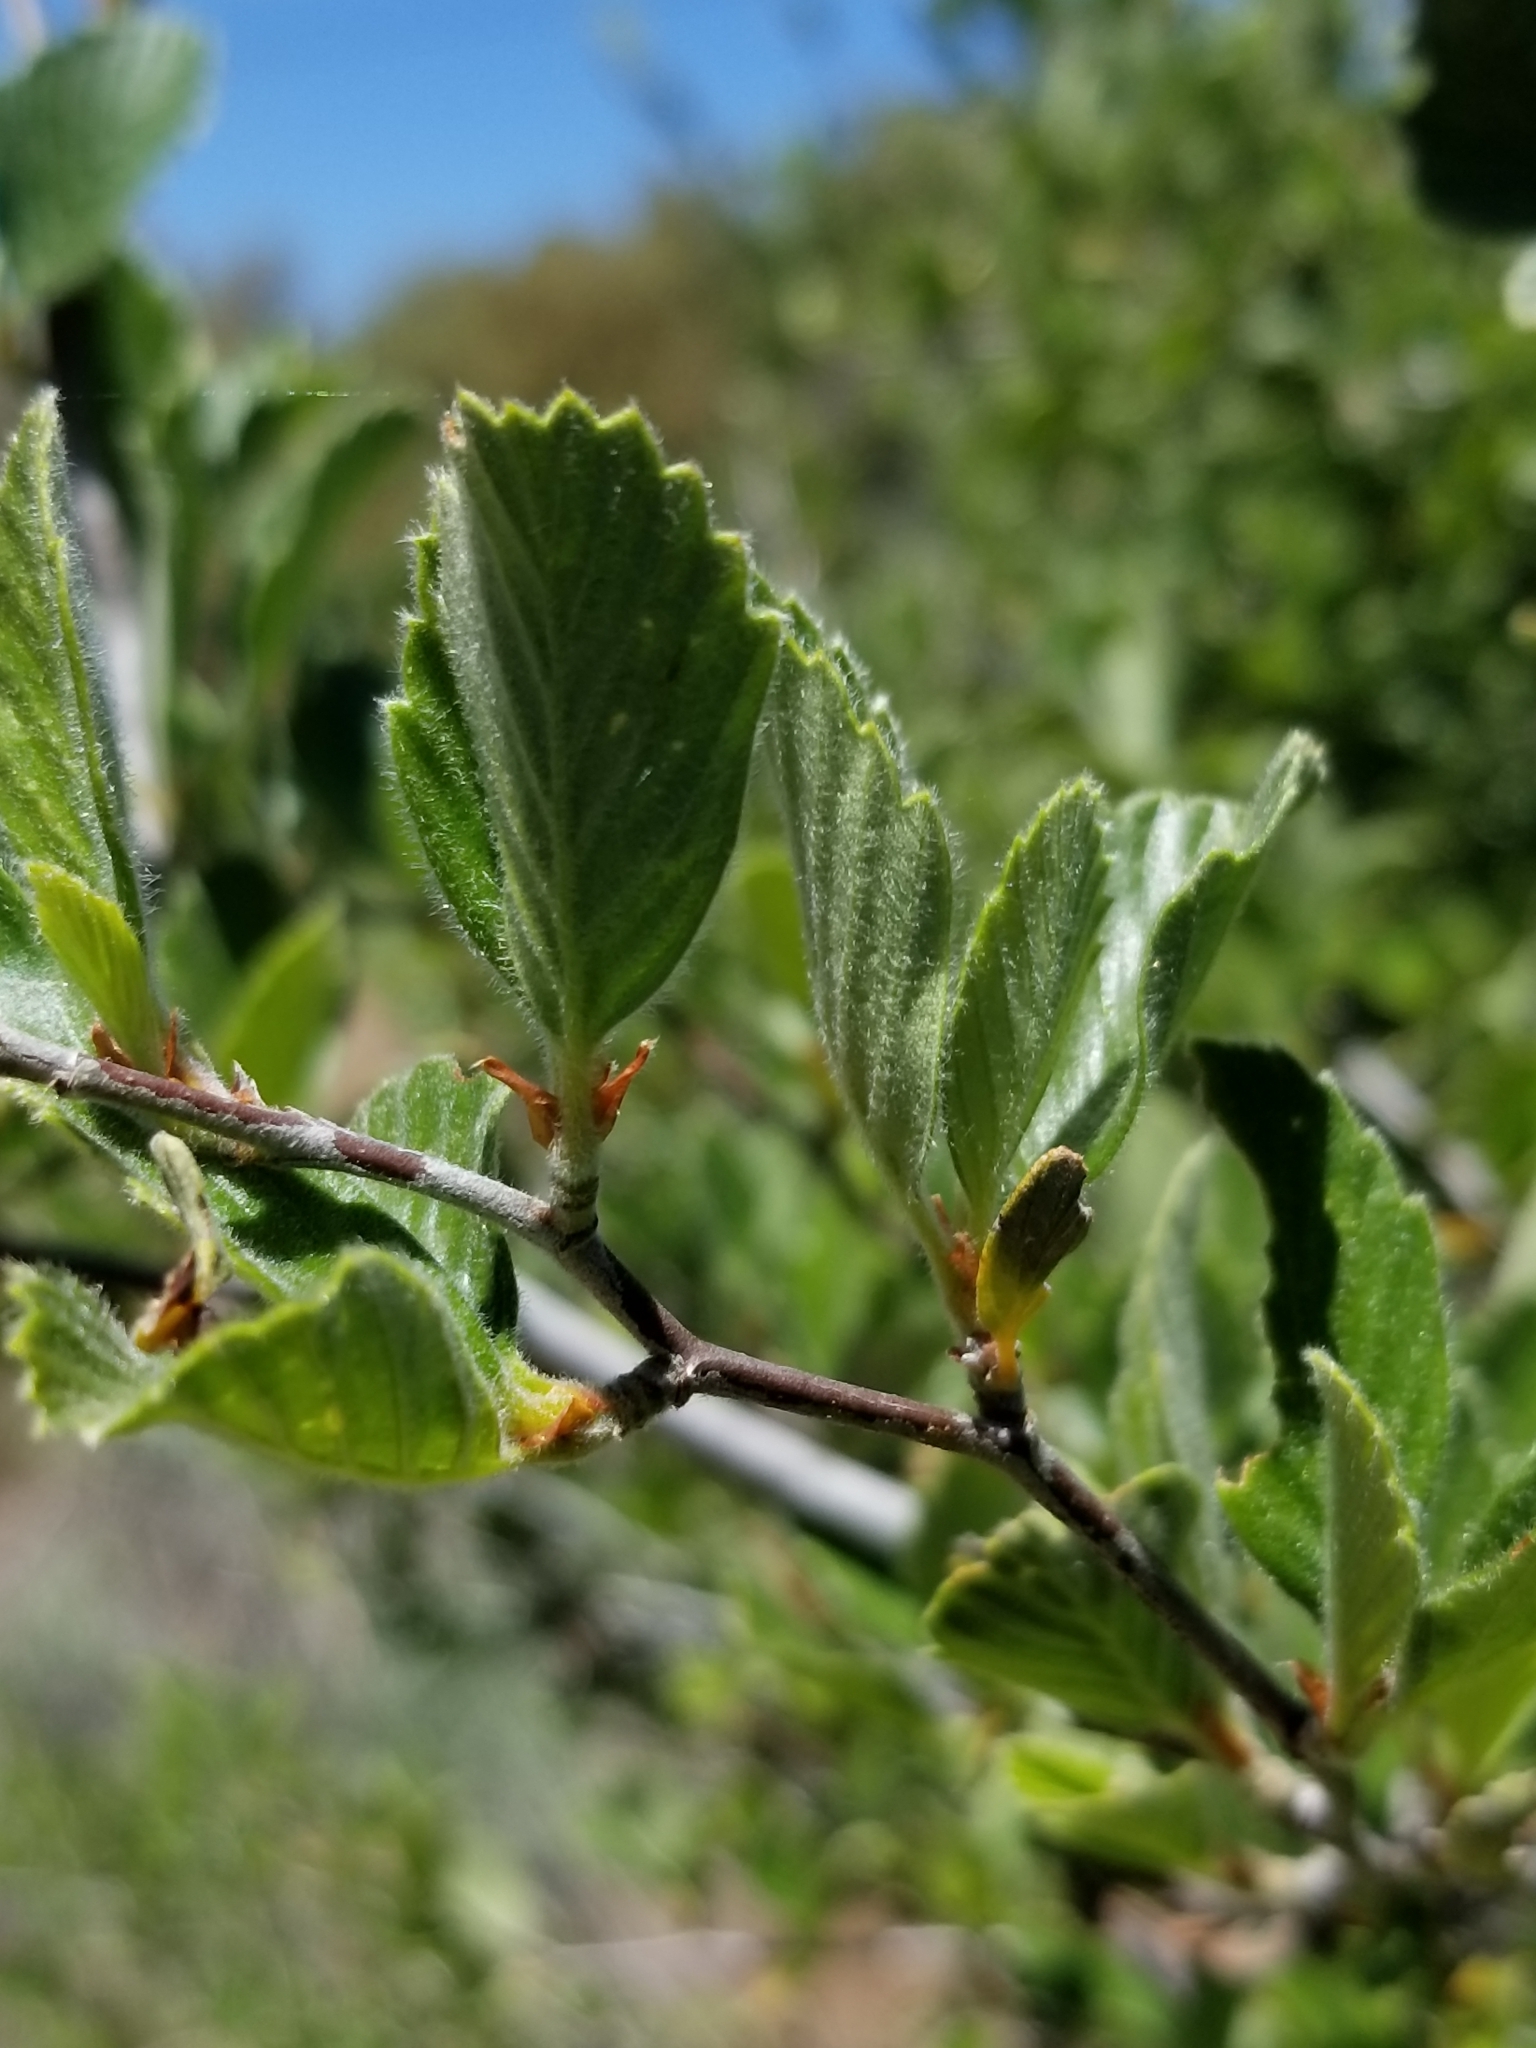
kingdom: Plantae
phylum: Tracheophyta
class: Magnoliopsida
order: Rosales
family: Rosaceae
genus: Cercocarpus
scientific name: Cercocarpus betuloides
